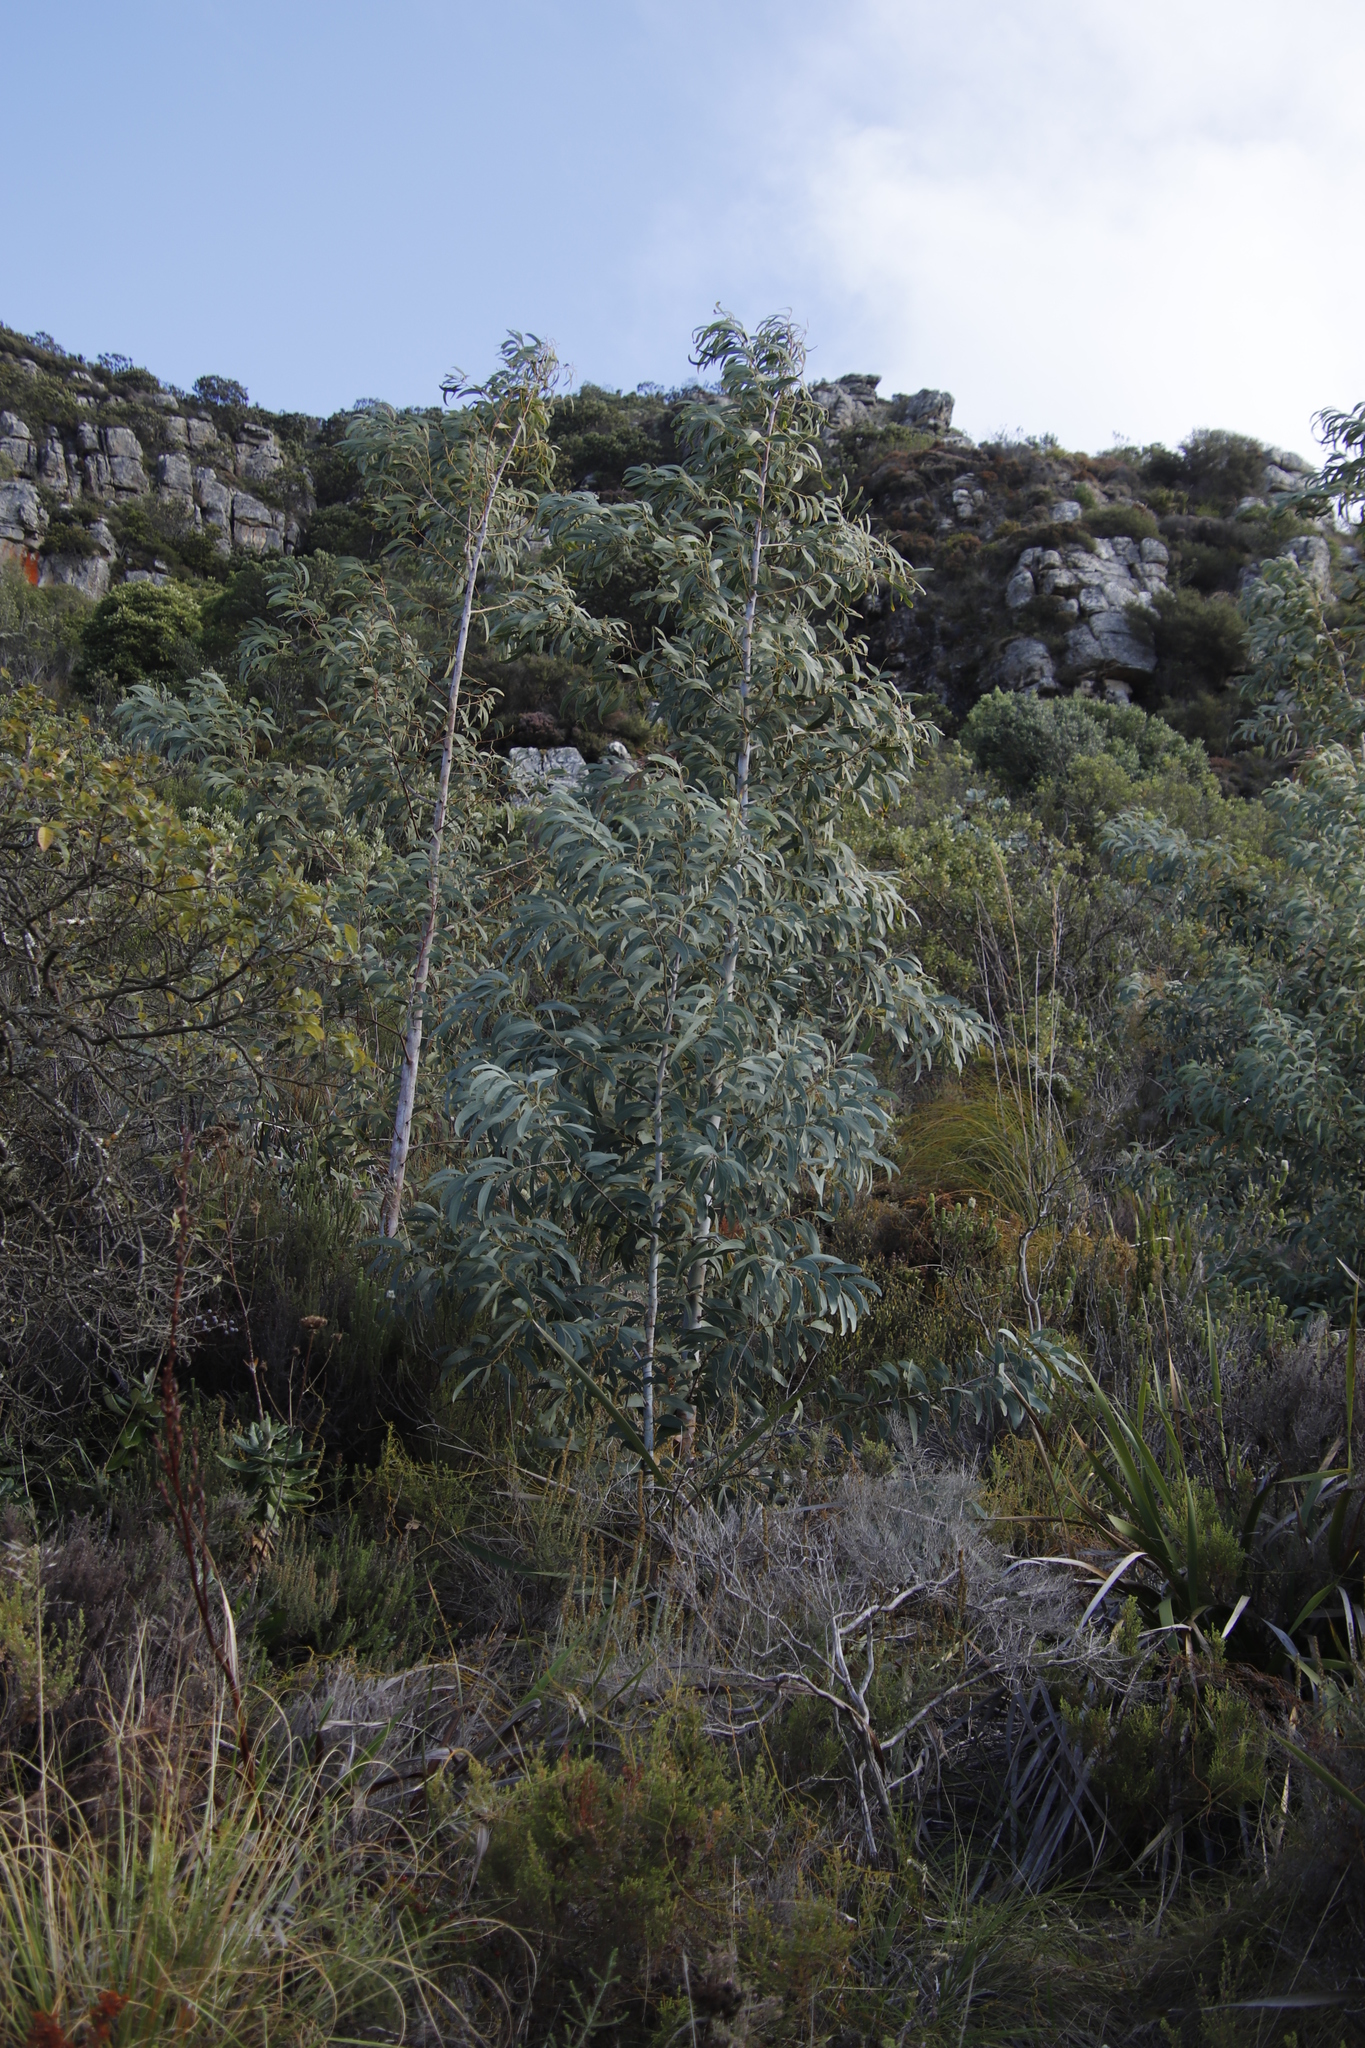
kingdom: Plantae
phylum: Tracheophyta
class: Magnoliopsida
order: Fabales
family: Fabaceae
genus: Acacia
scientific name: Acacia falciformis
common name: Tanning wattle
